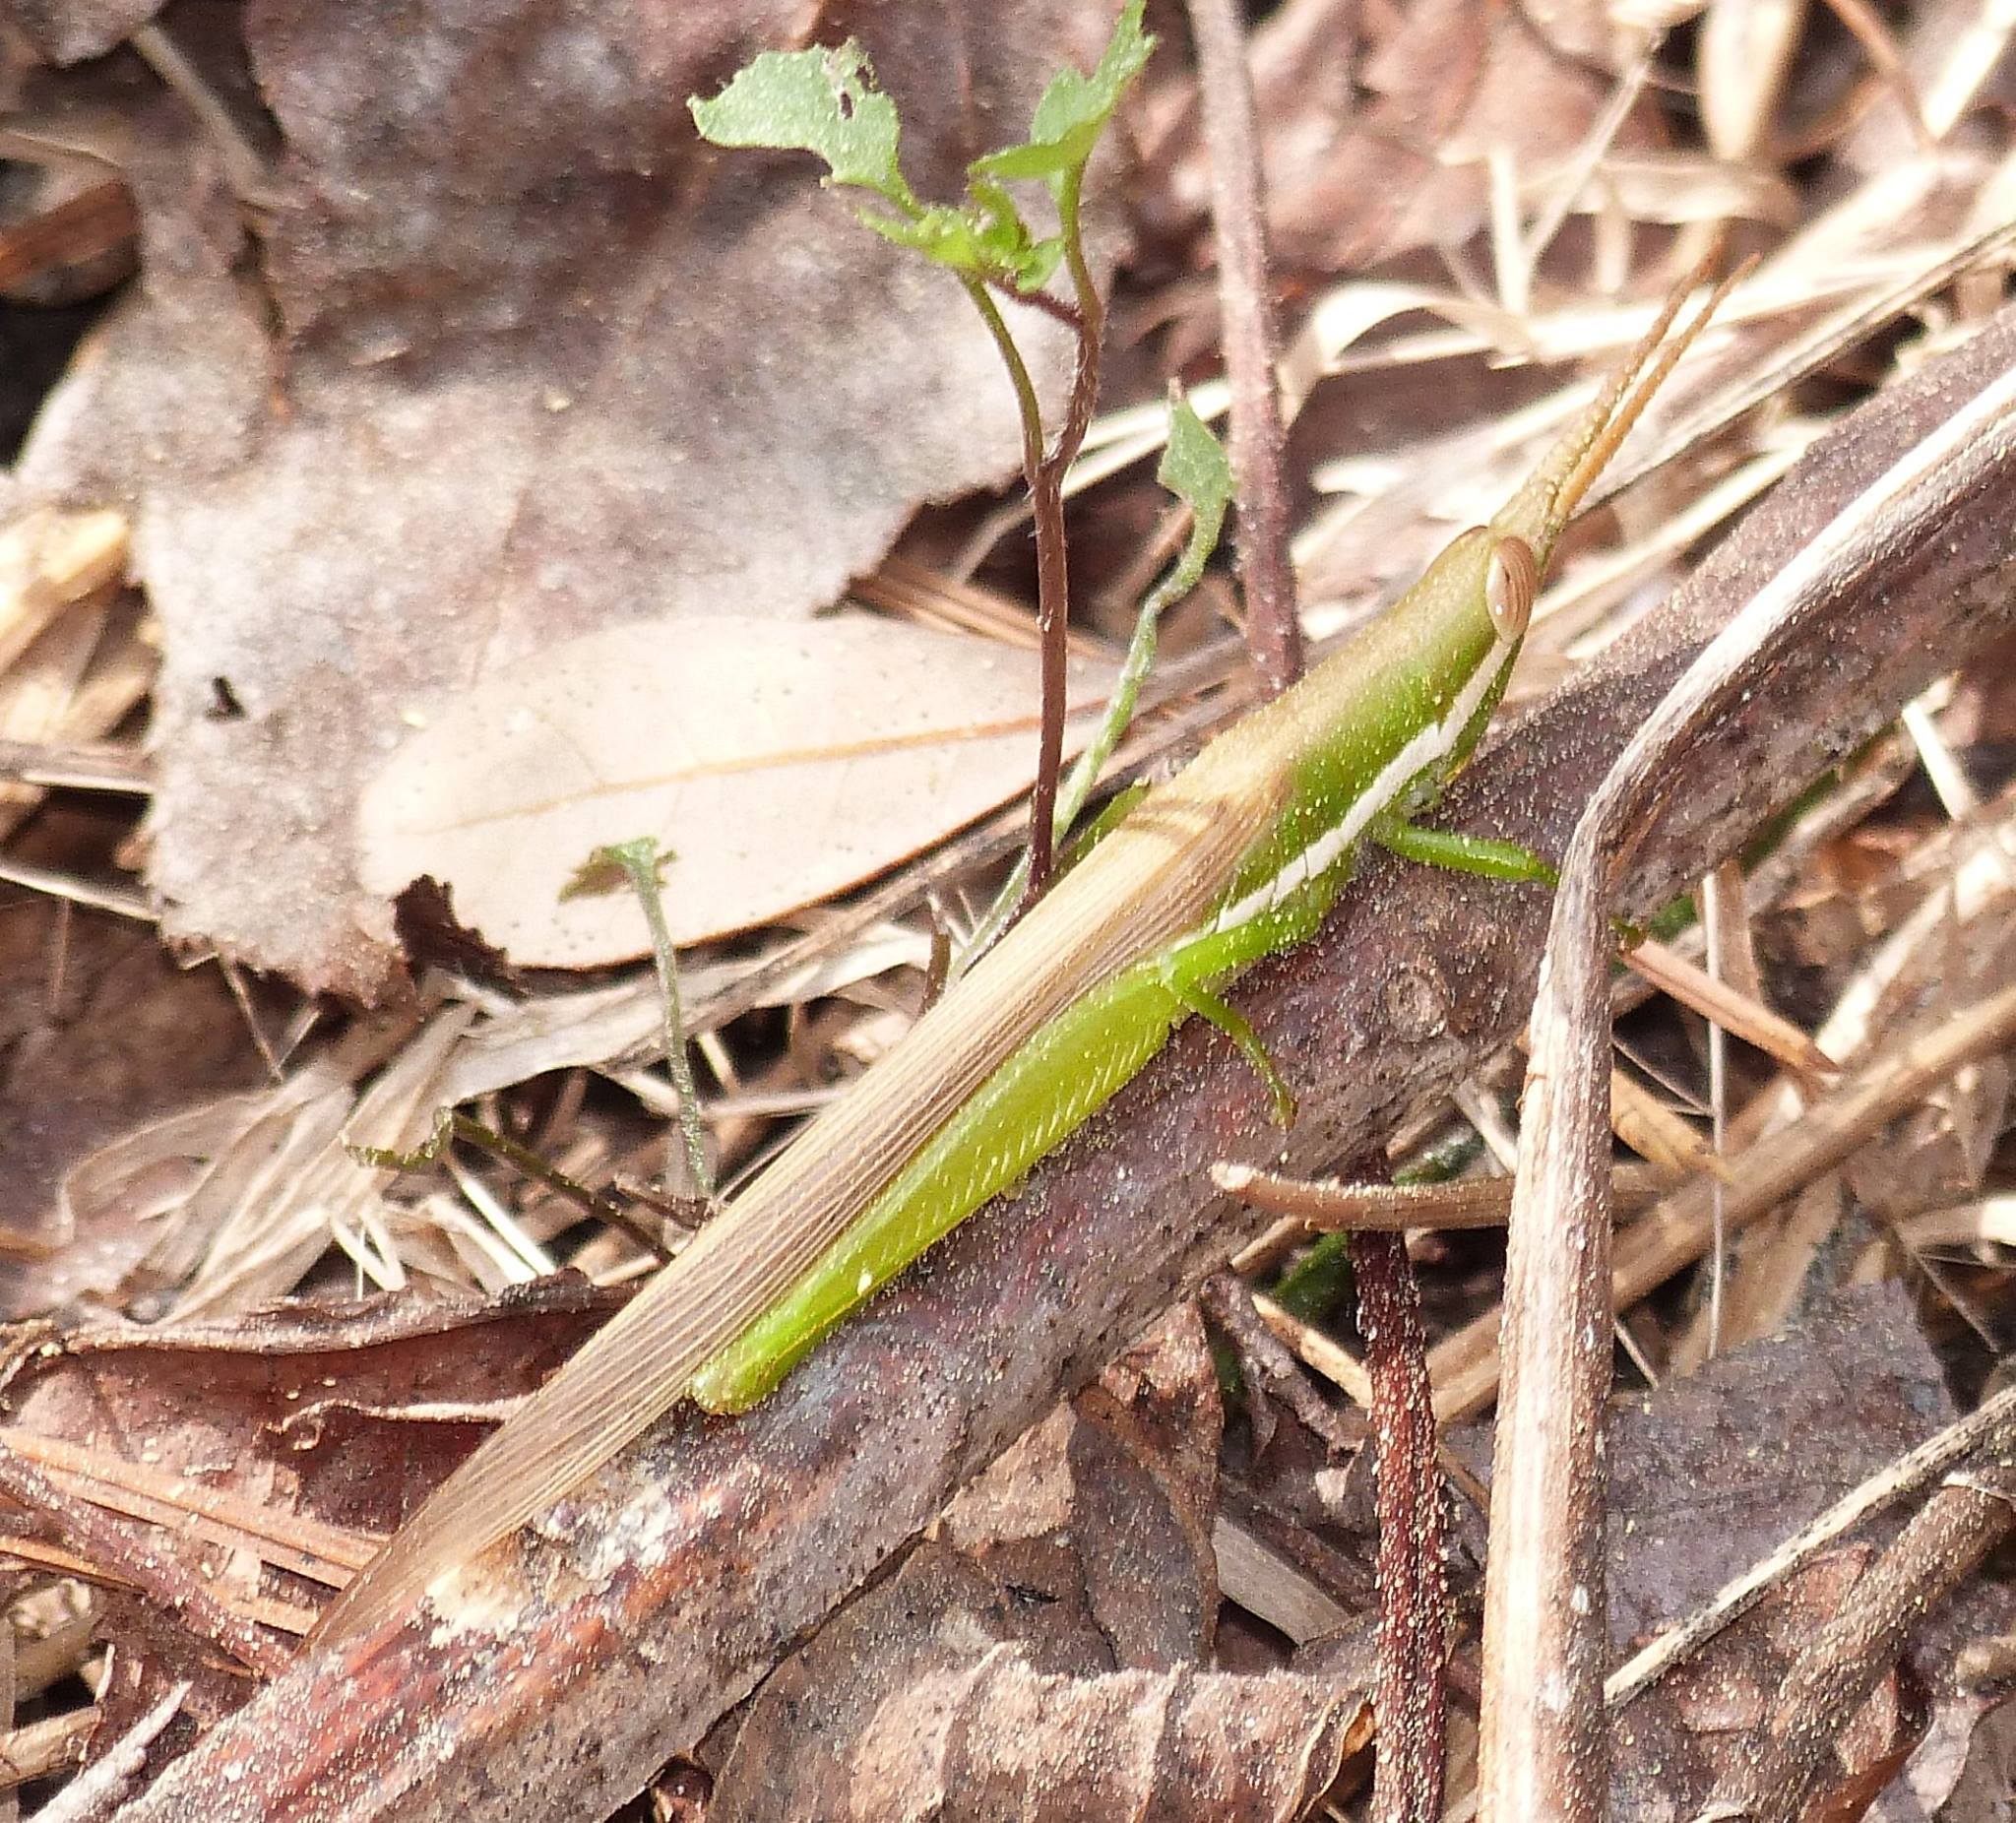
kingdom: Animalia
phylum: Arthropoda
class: Insecta
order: Orthoptera
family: Acrididae
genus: Leptysma
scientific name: Leptysma marginicollis
